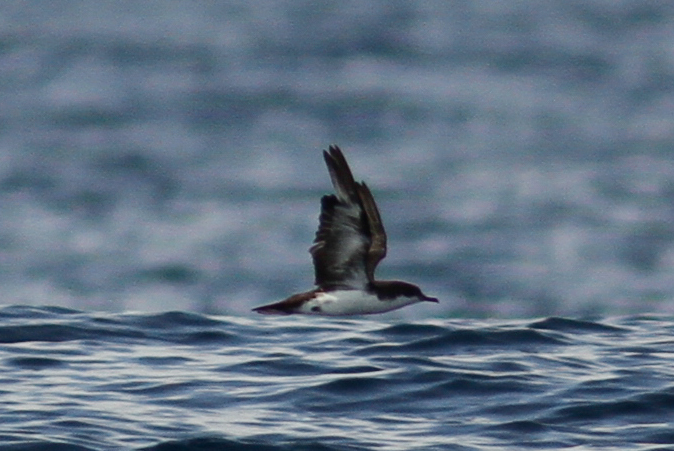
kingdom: Animalia
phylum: Chordata
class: Aves
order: Procellariiformes
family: Procellariidae
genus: Puffinus
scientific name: Puffinus subalaris
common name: Galapagos shearwater
